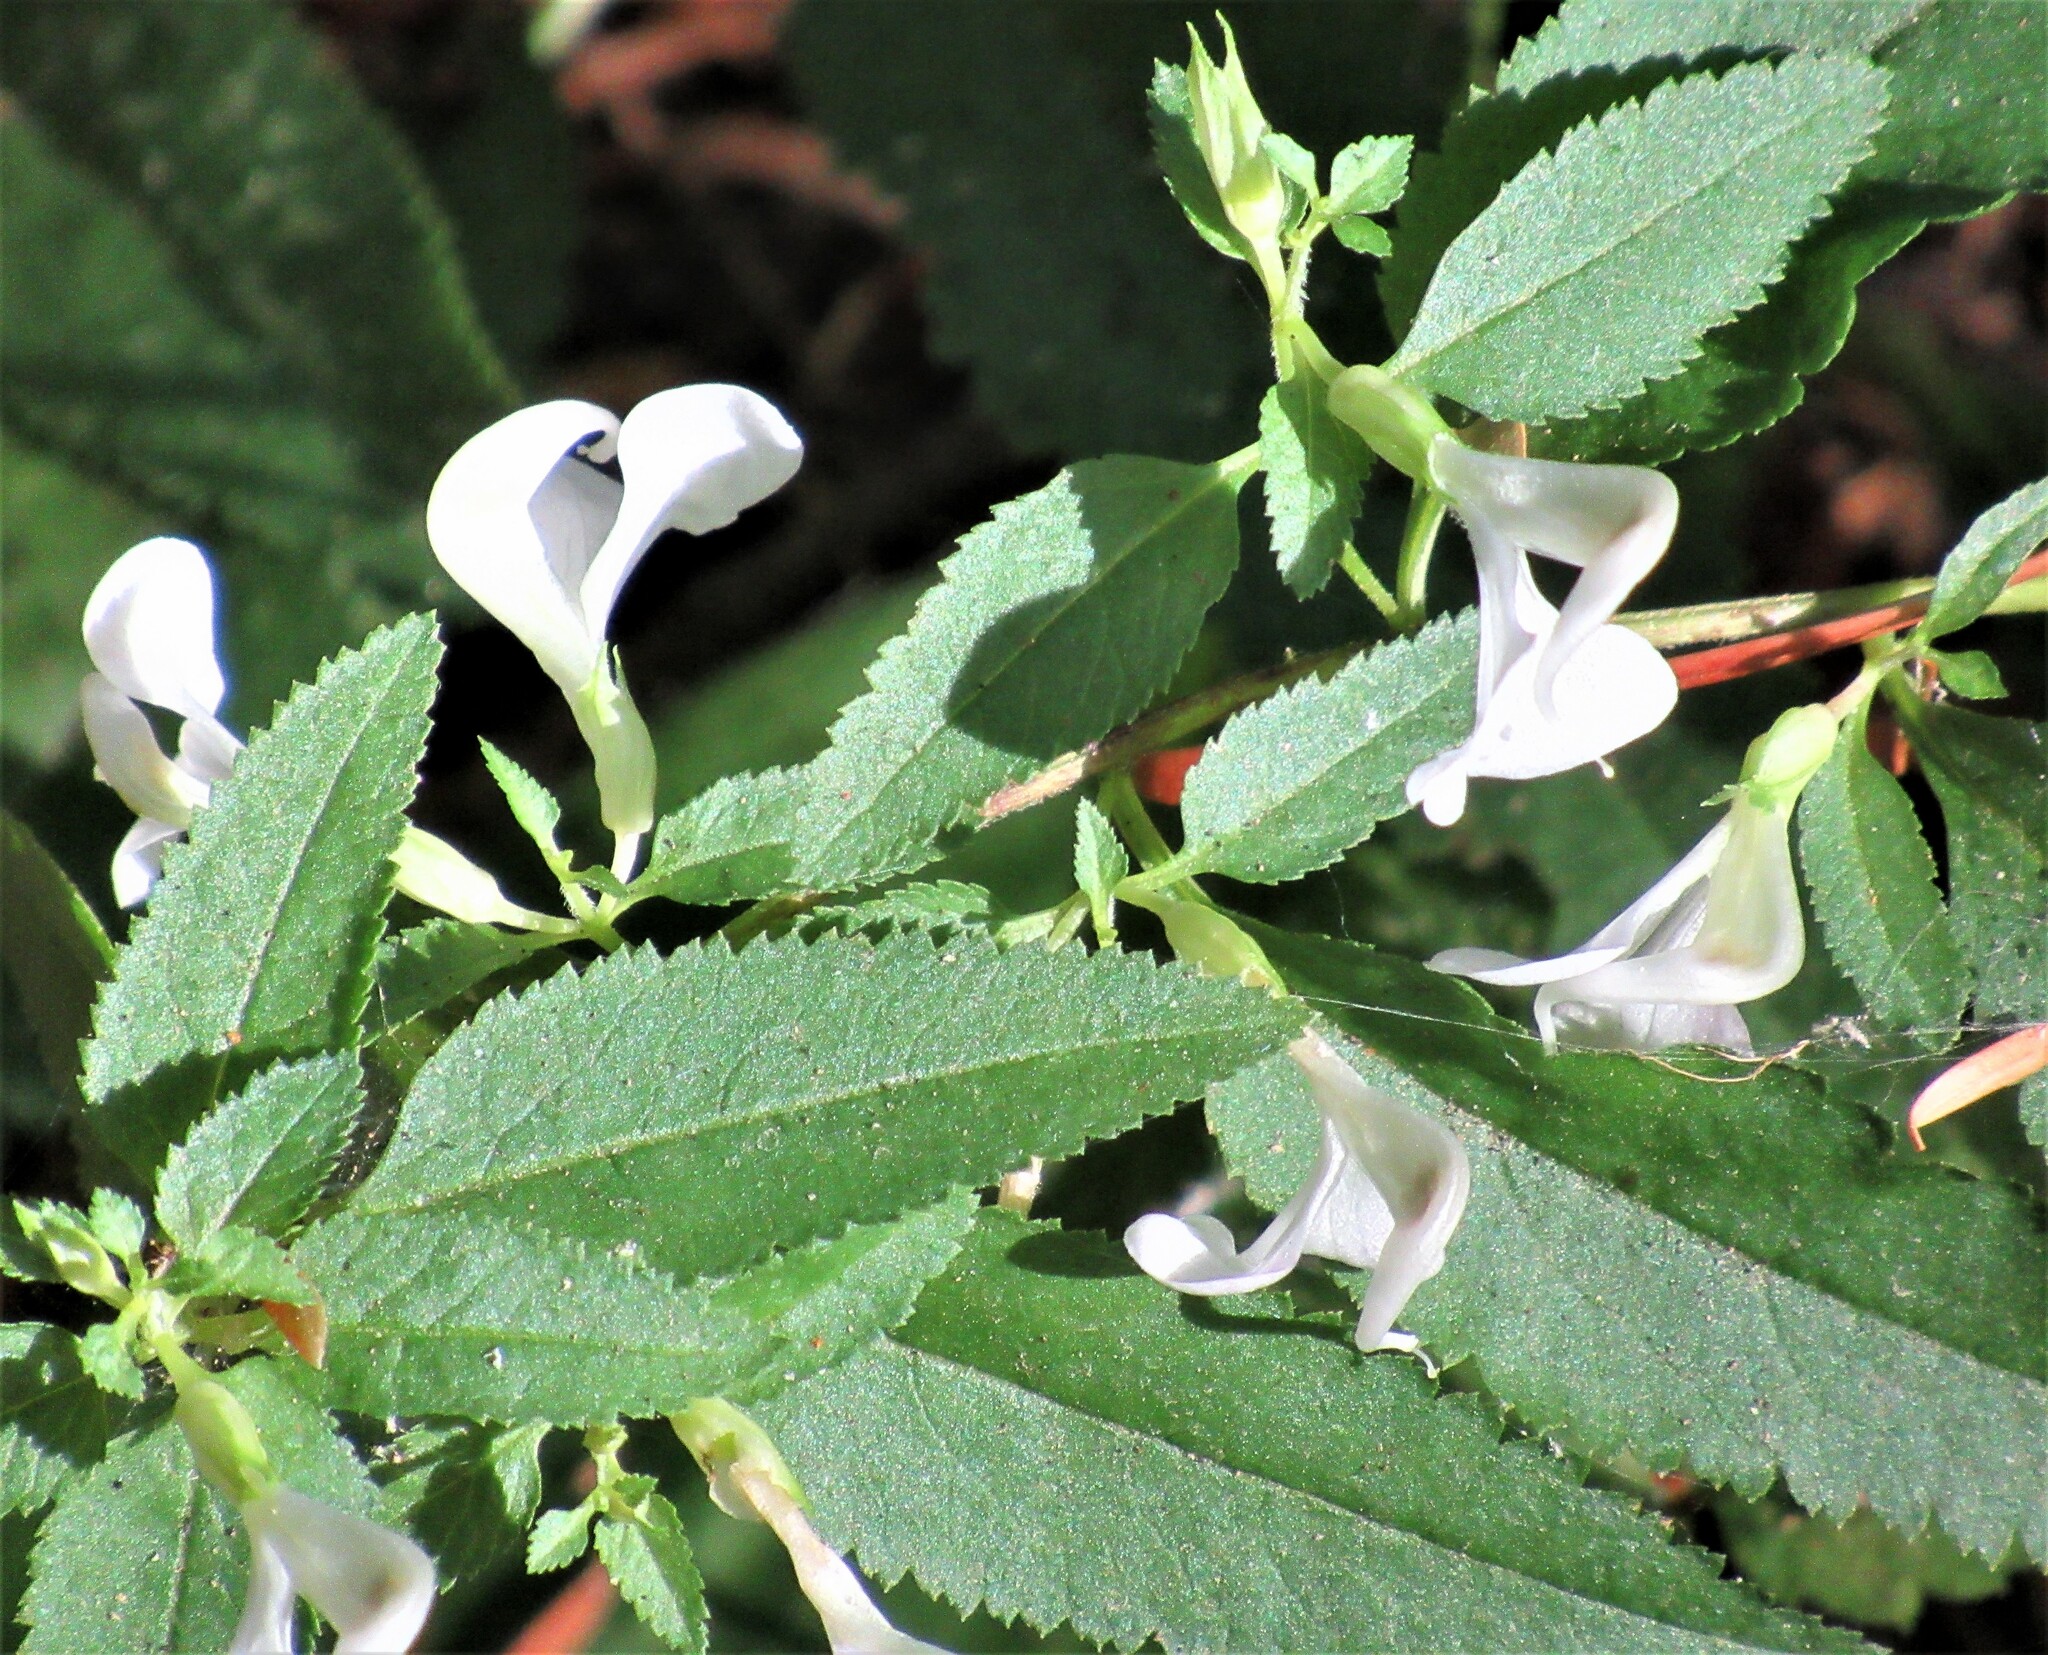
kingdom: Plantae
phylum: Tracheophyta
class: Magnoliopsida
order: Lamiales
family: Orobanchaceae
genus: Pedicularis
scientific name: Pedicularis racemosa
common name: Leafy lousewort
